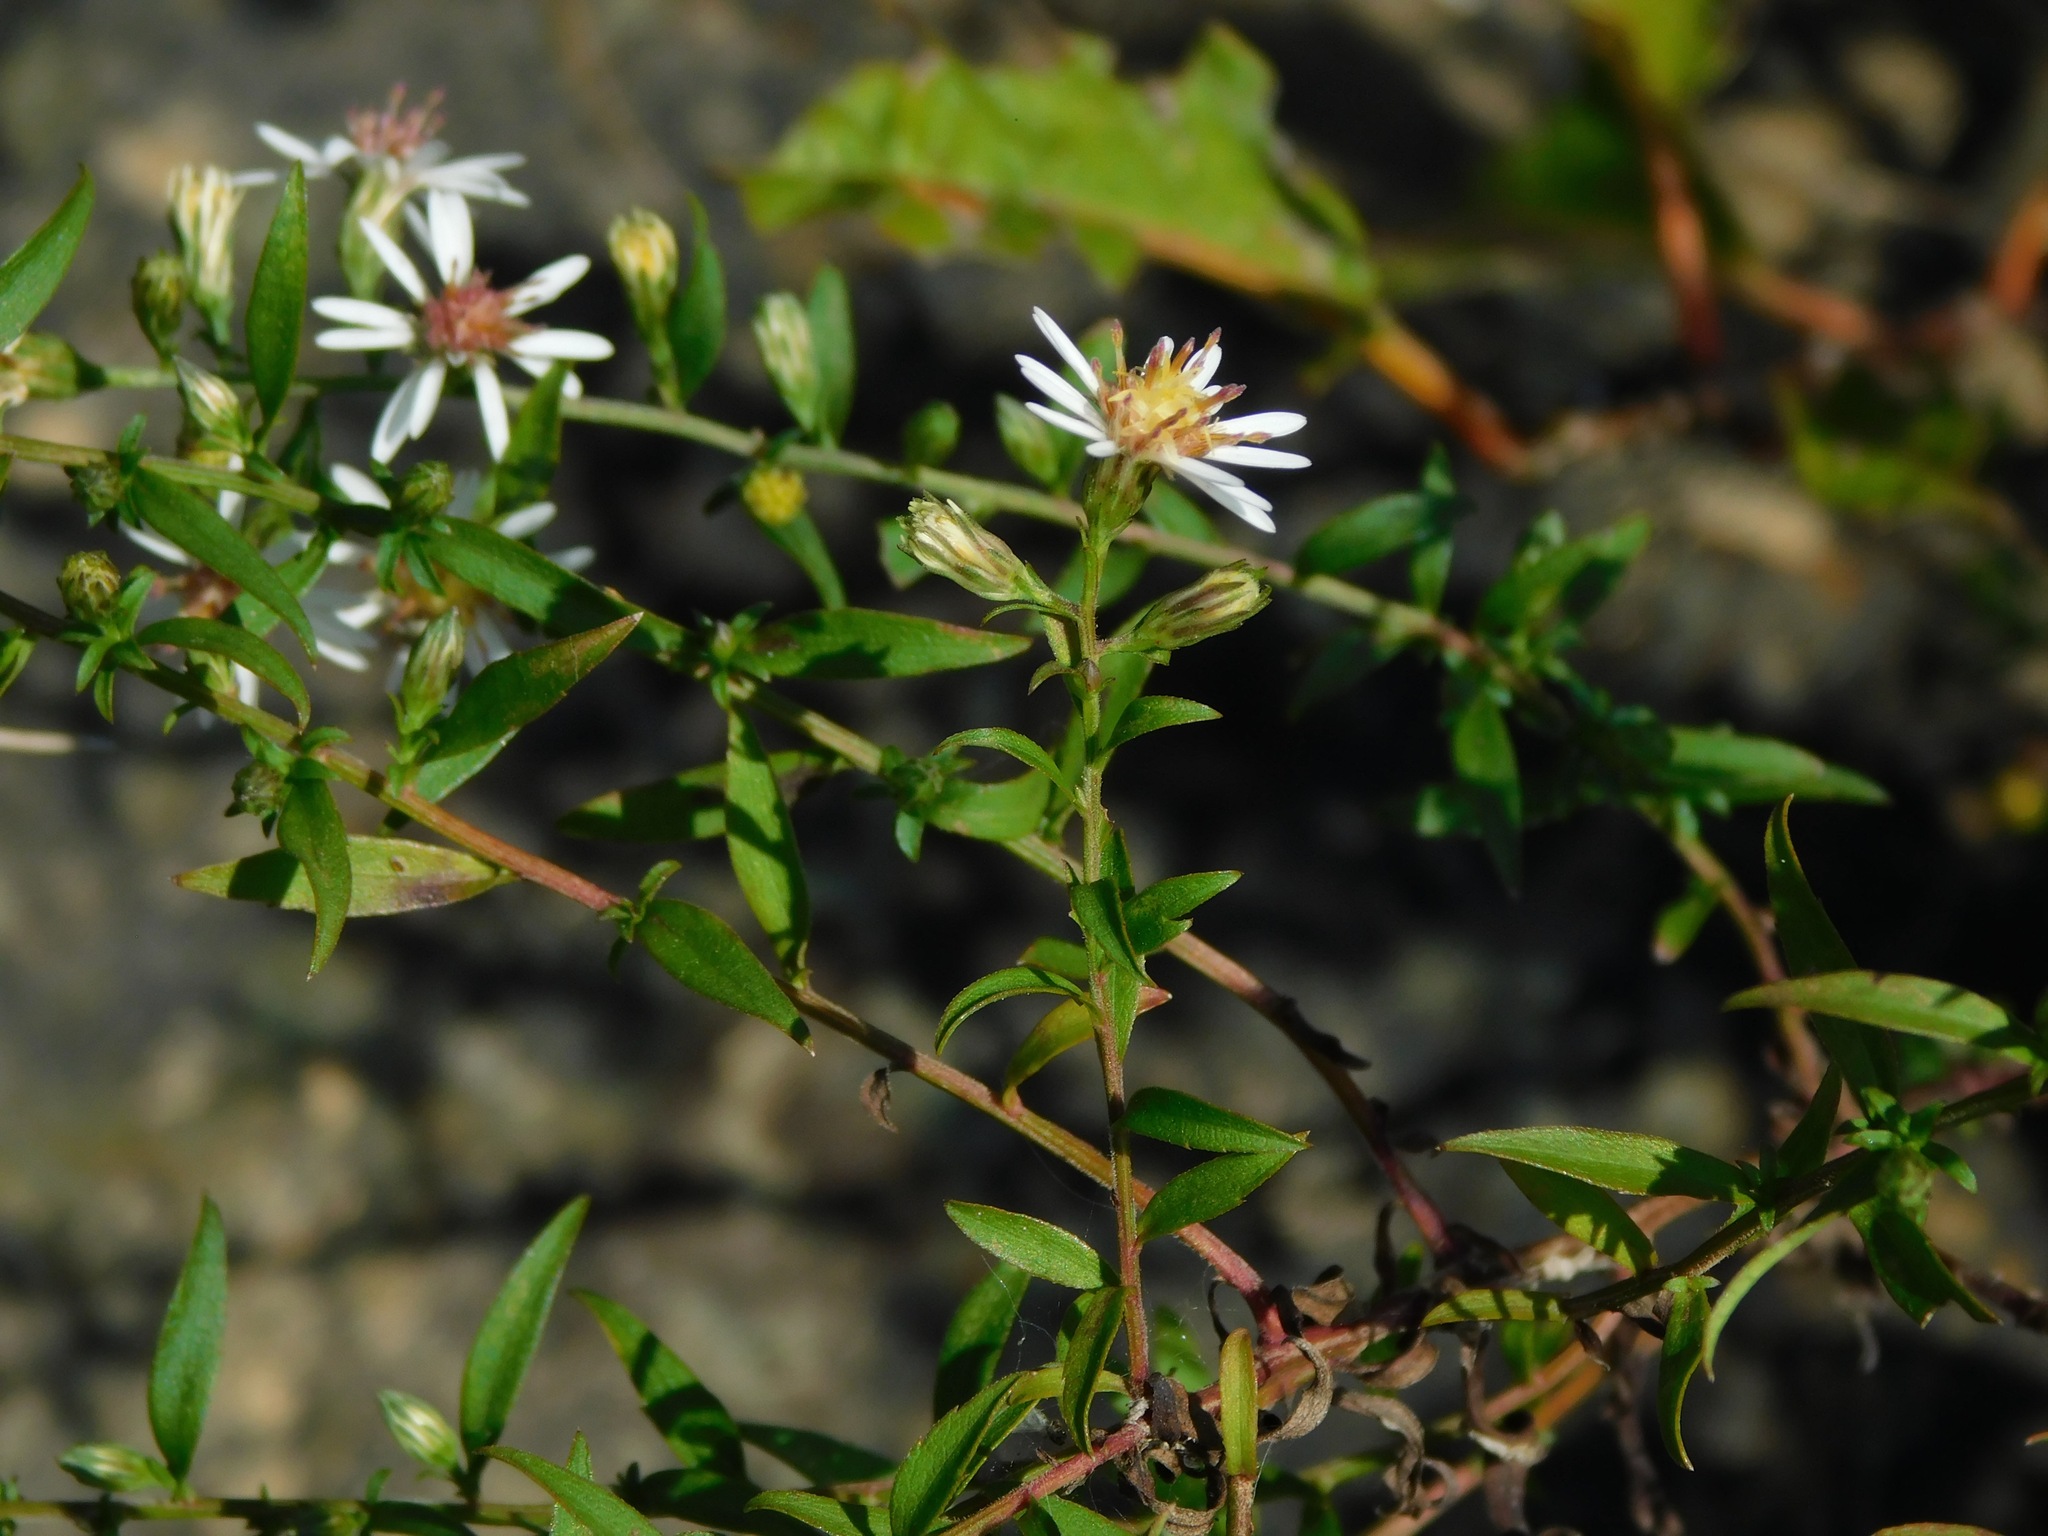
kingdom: Plantae
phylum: Tracheophyta
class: Magnoliopsida
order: Asterales
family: Asteraceae
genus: Symphyotrichum
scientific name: Symphyotrichum lateriflorum
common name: Calico aster
